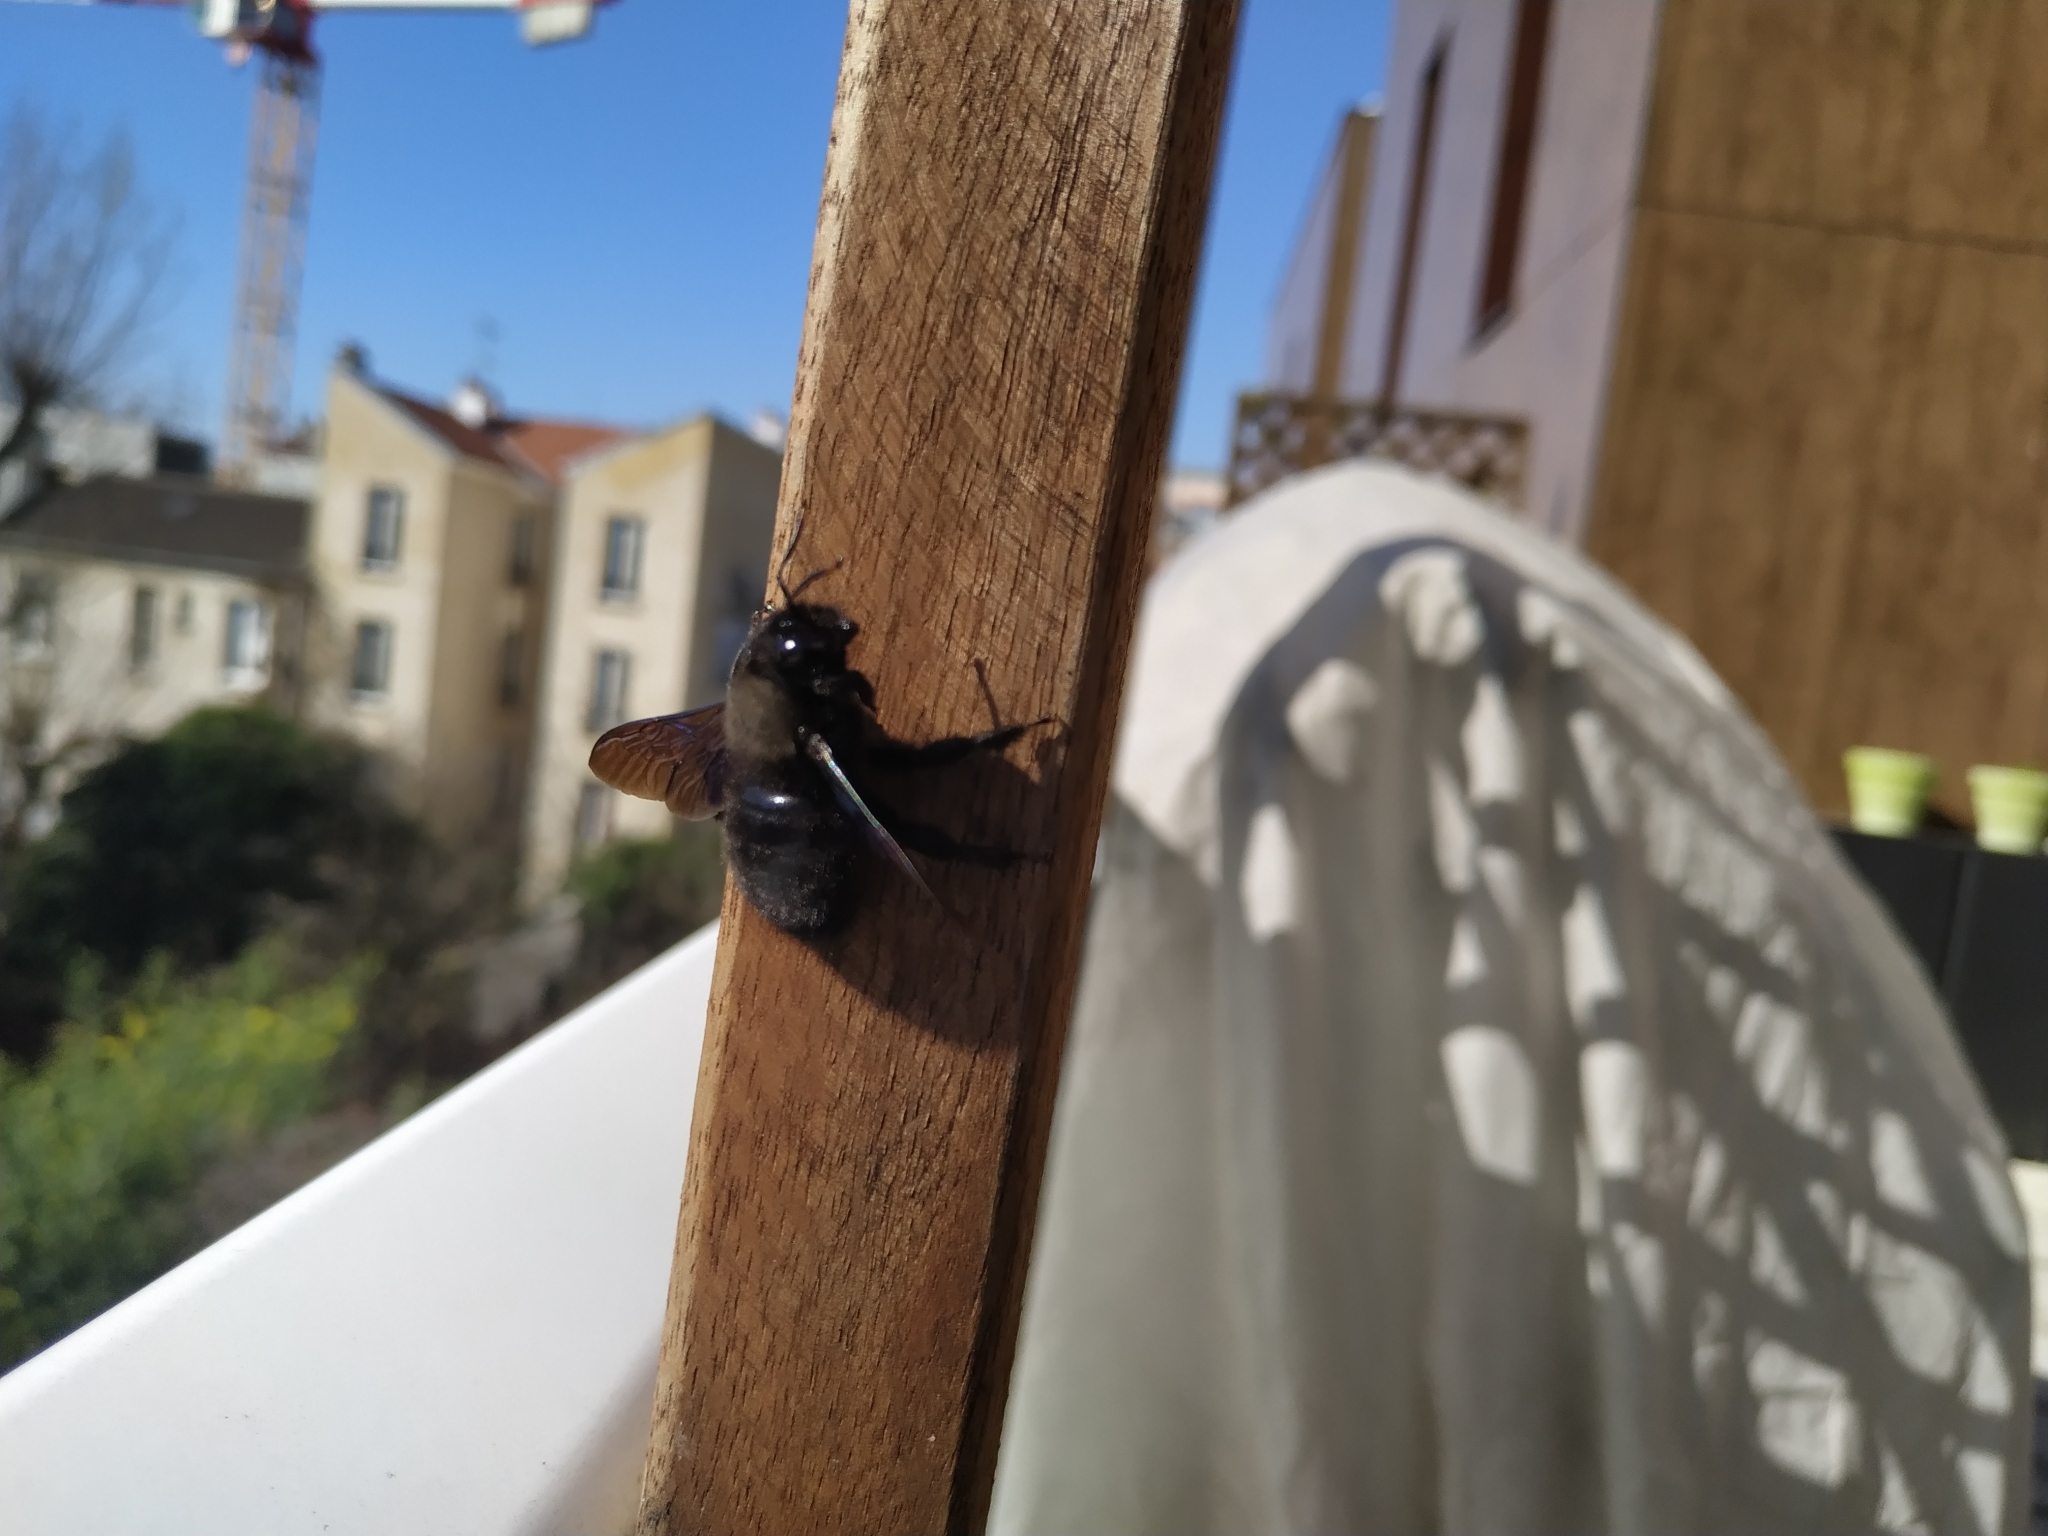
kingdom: Animalia
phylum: Arthropoda
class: Insecta
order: Hymenoptera
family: Apidae
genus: Xylocopa
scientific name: Xylocopa violacea
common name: Violet carpenter bee
